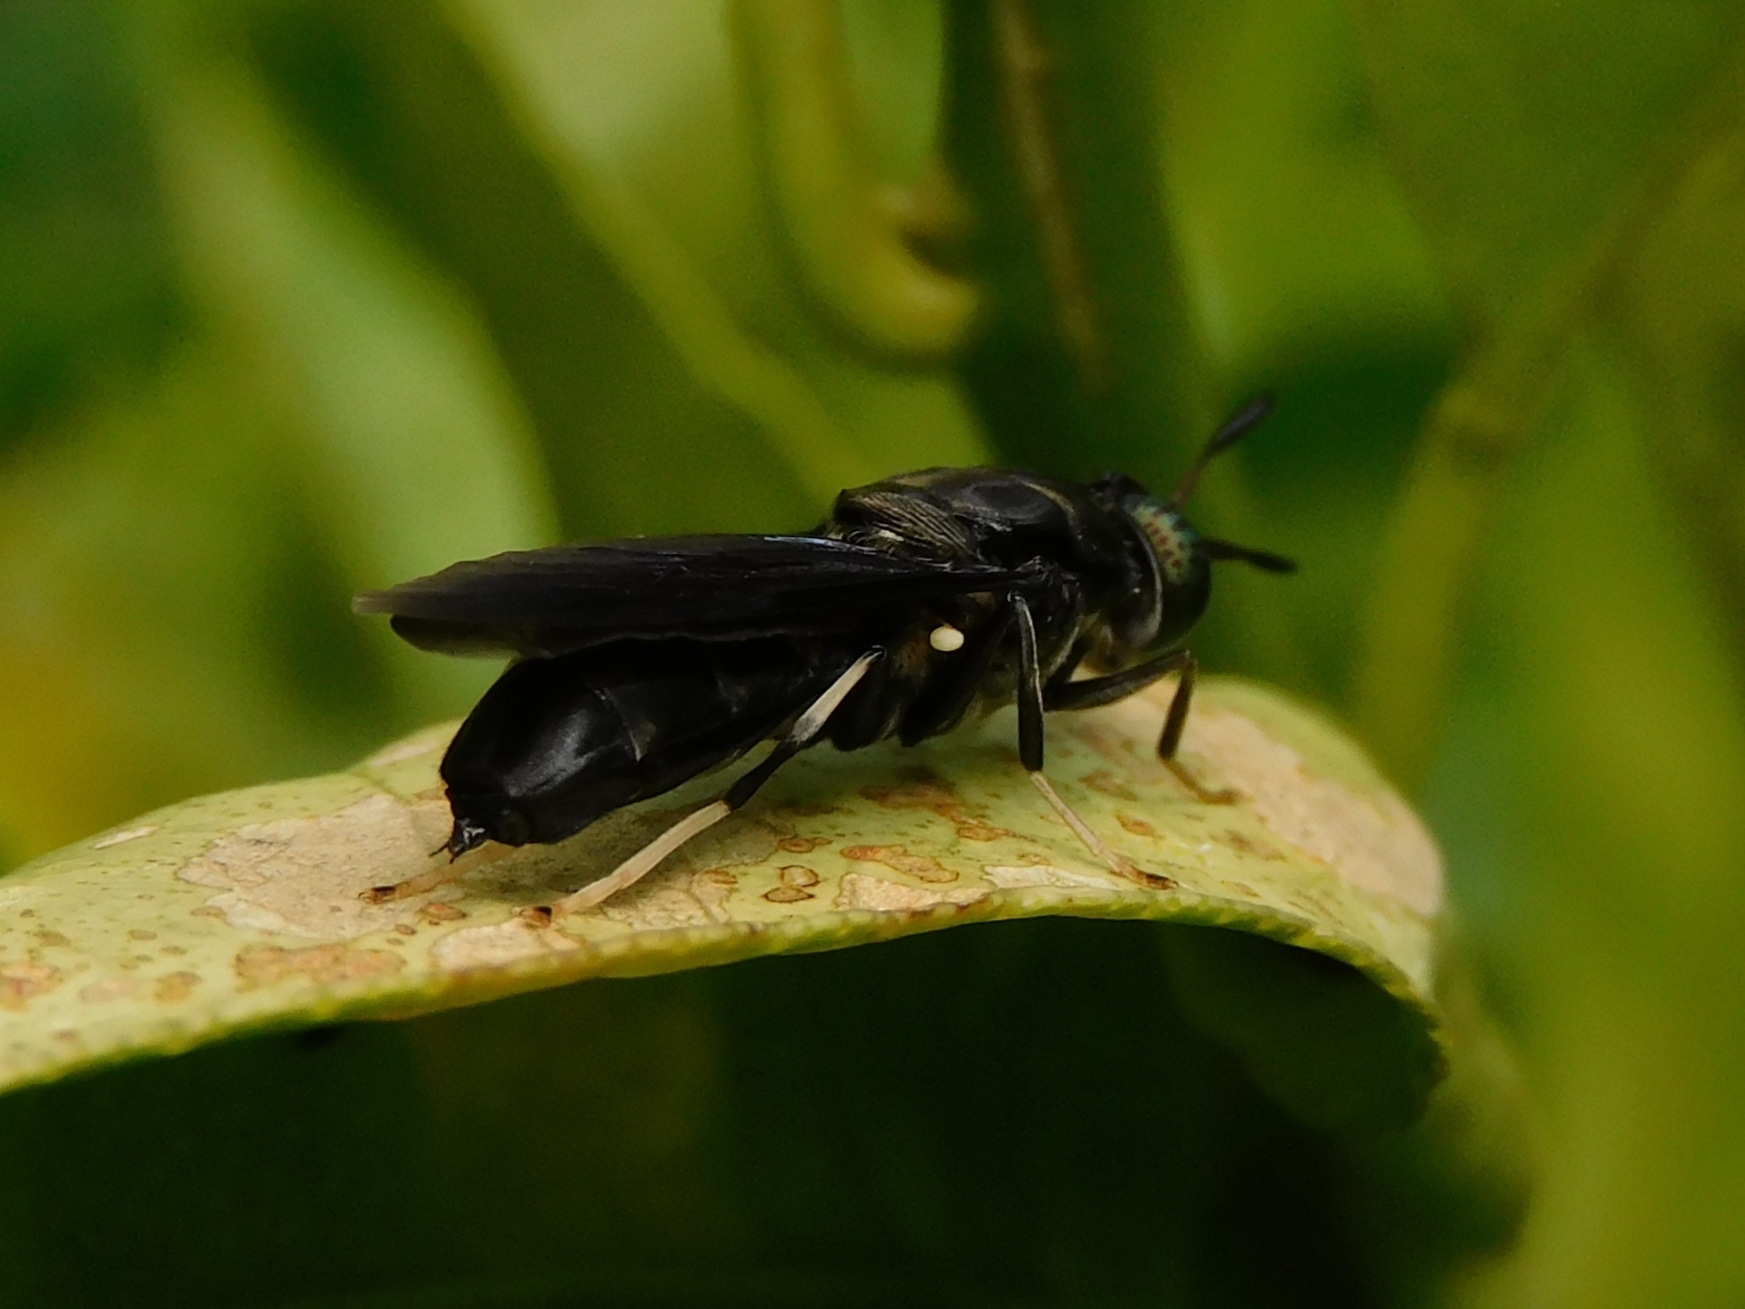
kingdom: Animalia
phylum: Arthropoda
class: Insecta
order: Diptera
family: Stratiomyidae
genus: Hermetia
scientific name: Hermetia illucens
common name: Black soldier fly
